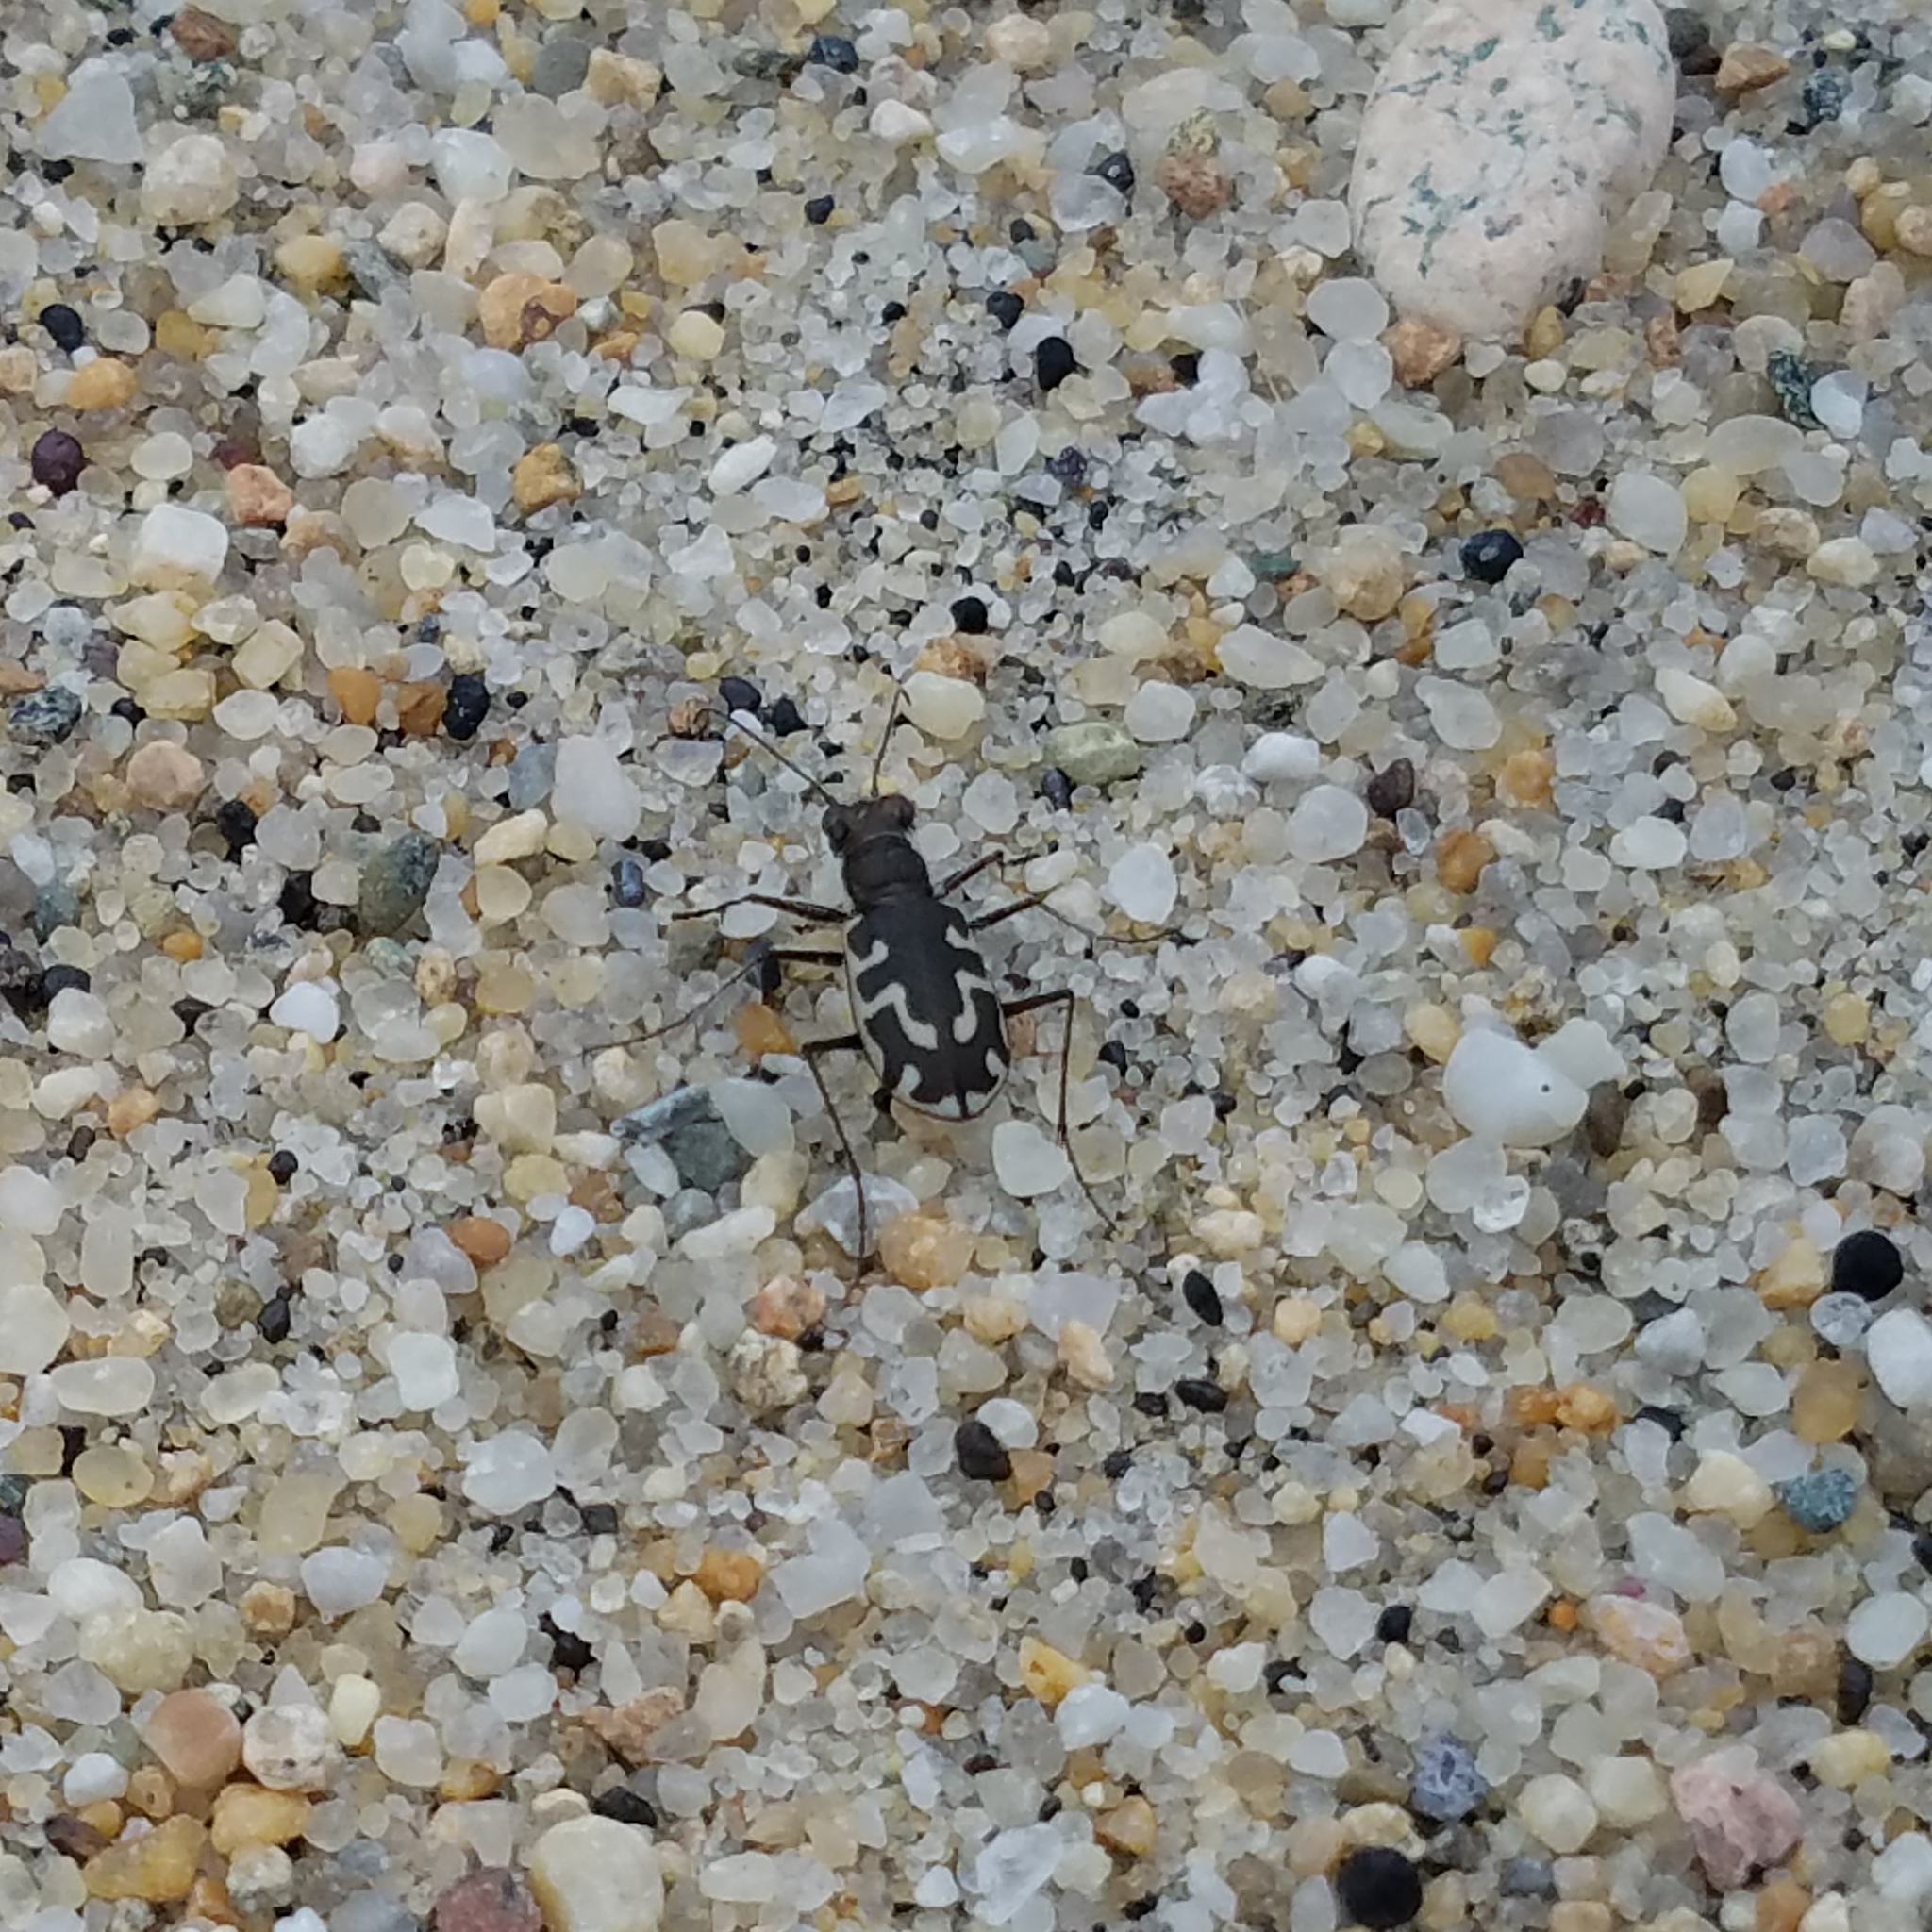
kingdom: Animalia
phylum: Arthropoda
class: Insecta
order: Coleoptera
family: Carabidae
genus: Cicindela
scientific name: Cicindela hirticollis
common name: Hairy-necked tiger beetle
